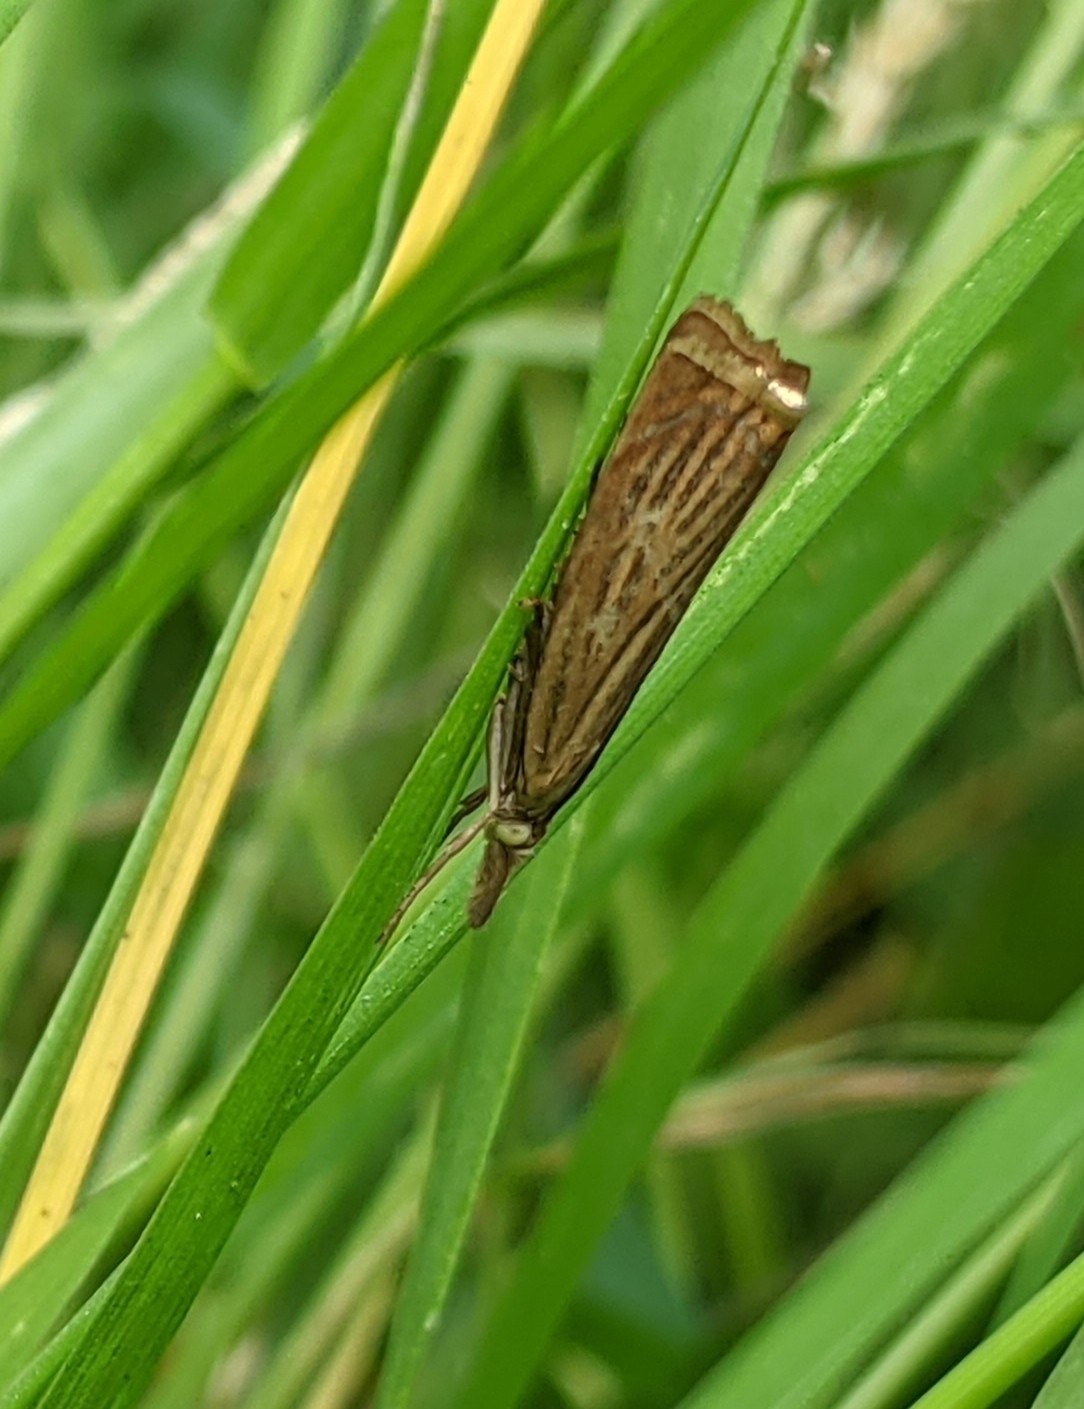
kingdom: Animalia
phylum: Arthropoda
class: Insecta
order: Lepidoptera
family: Crambidae
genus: Chrysoteuchia
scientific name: Chrysoteuchia culmella
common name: Garden grass-veneer
